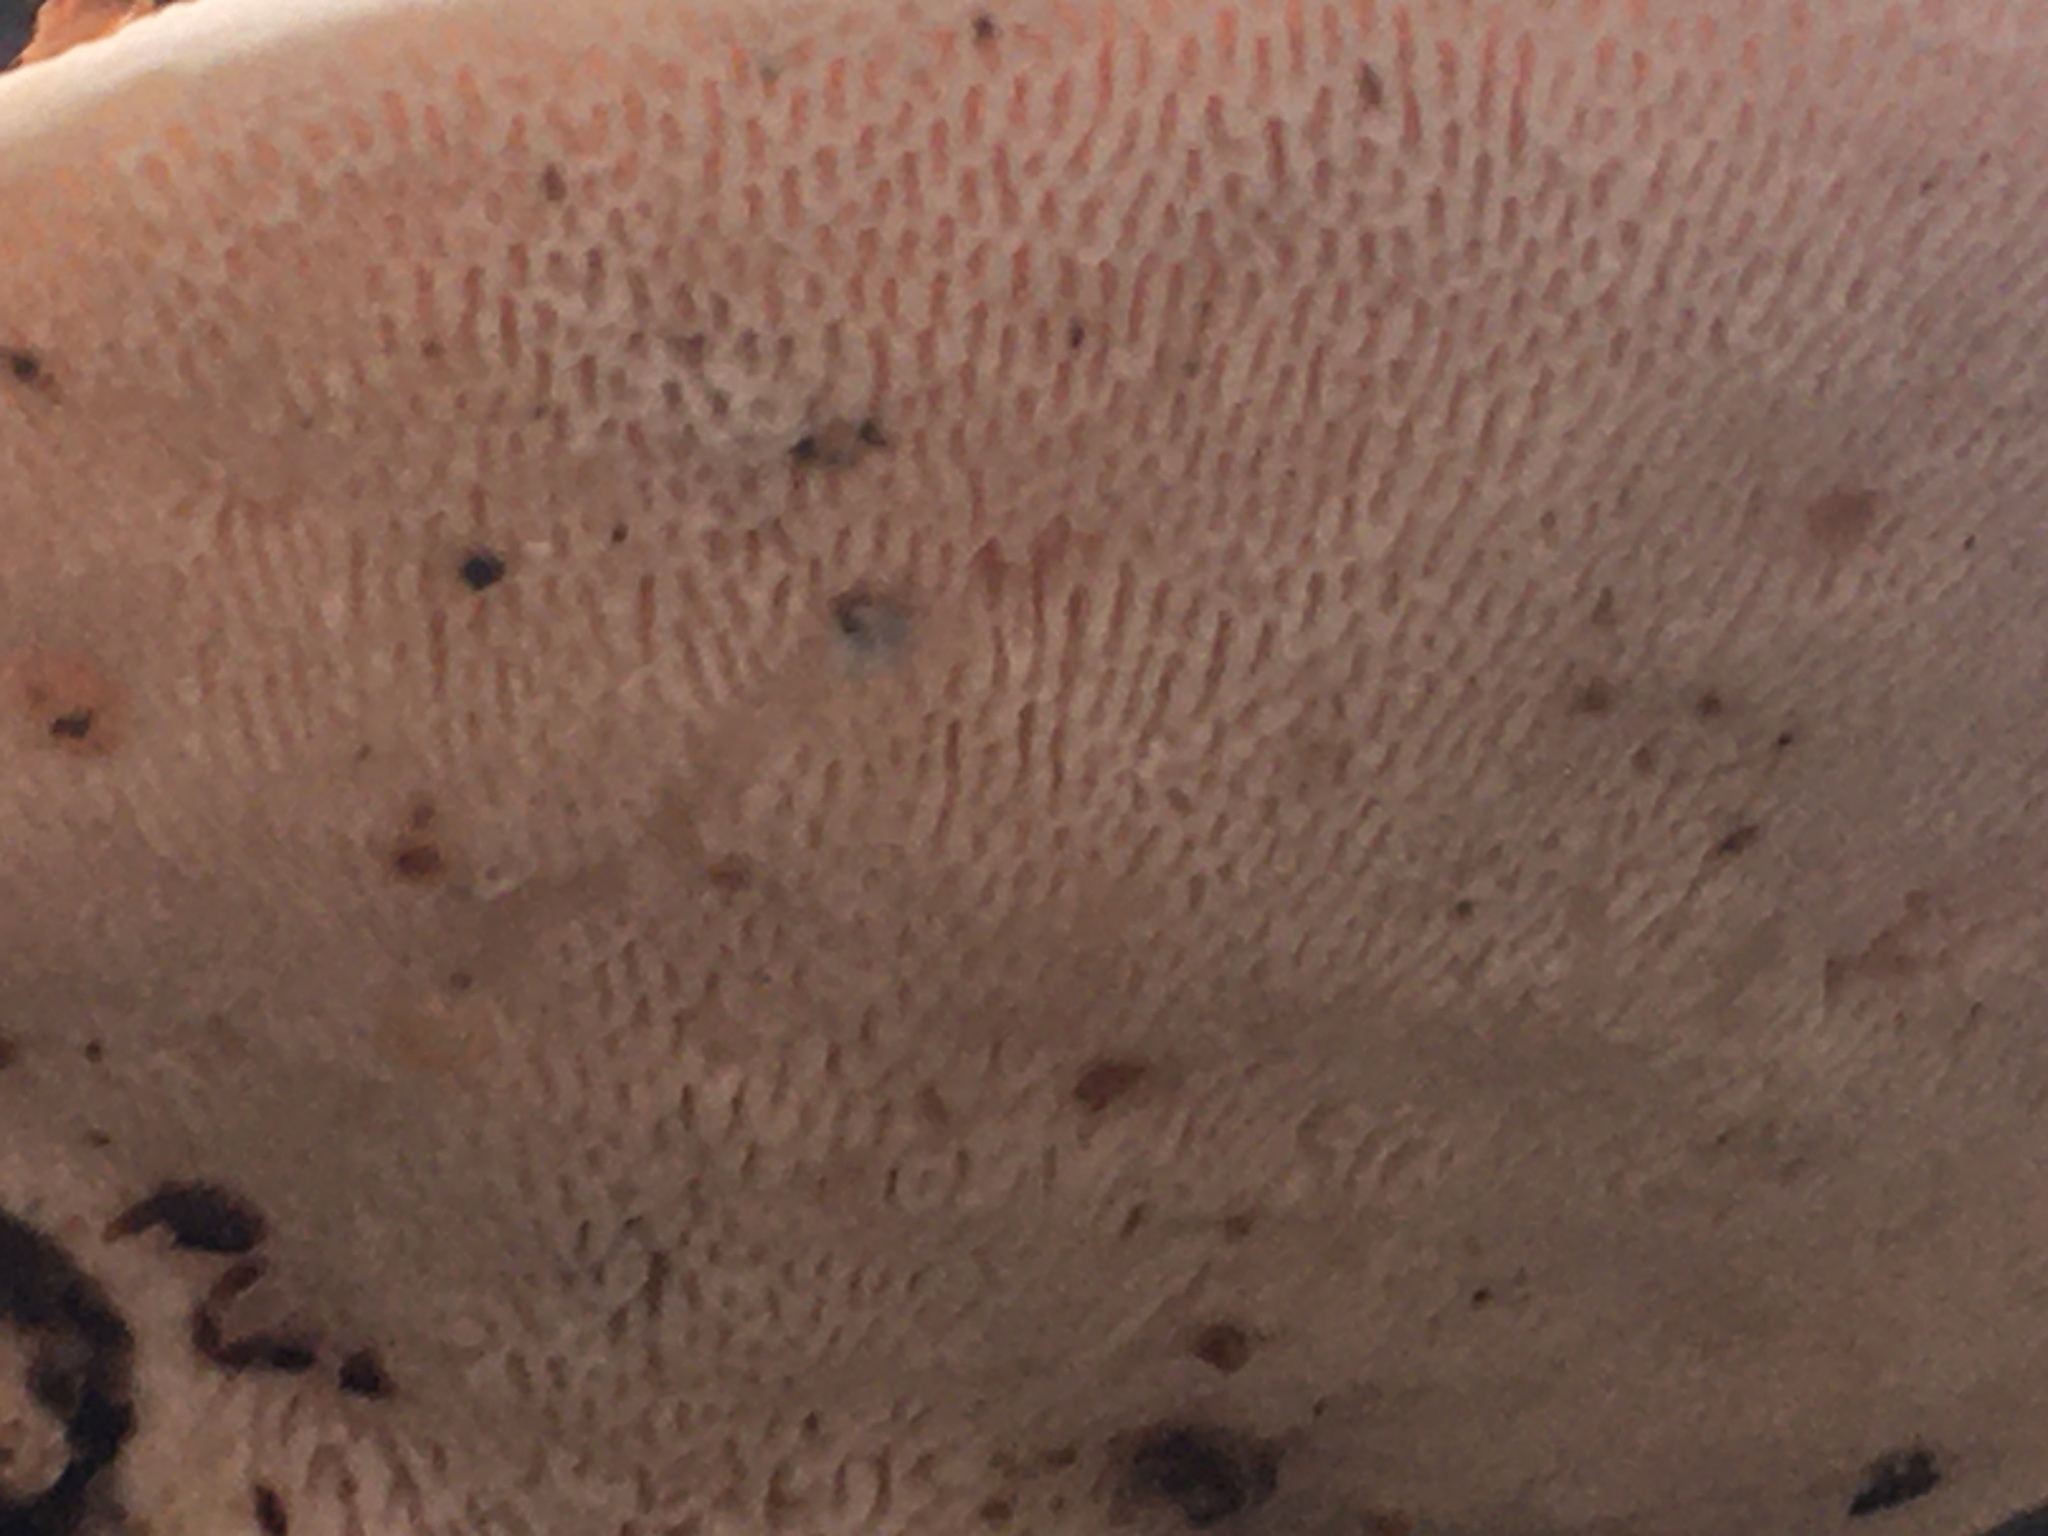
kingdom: Fungi
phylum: Basidiomycota
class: Agaricomycetes
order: Polyporales
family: Polyporaceae
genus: Trametes
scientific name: Trametes gibbosa
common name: Lumpy bracket
